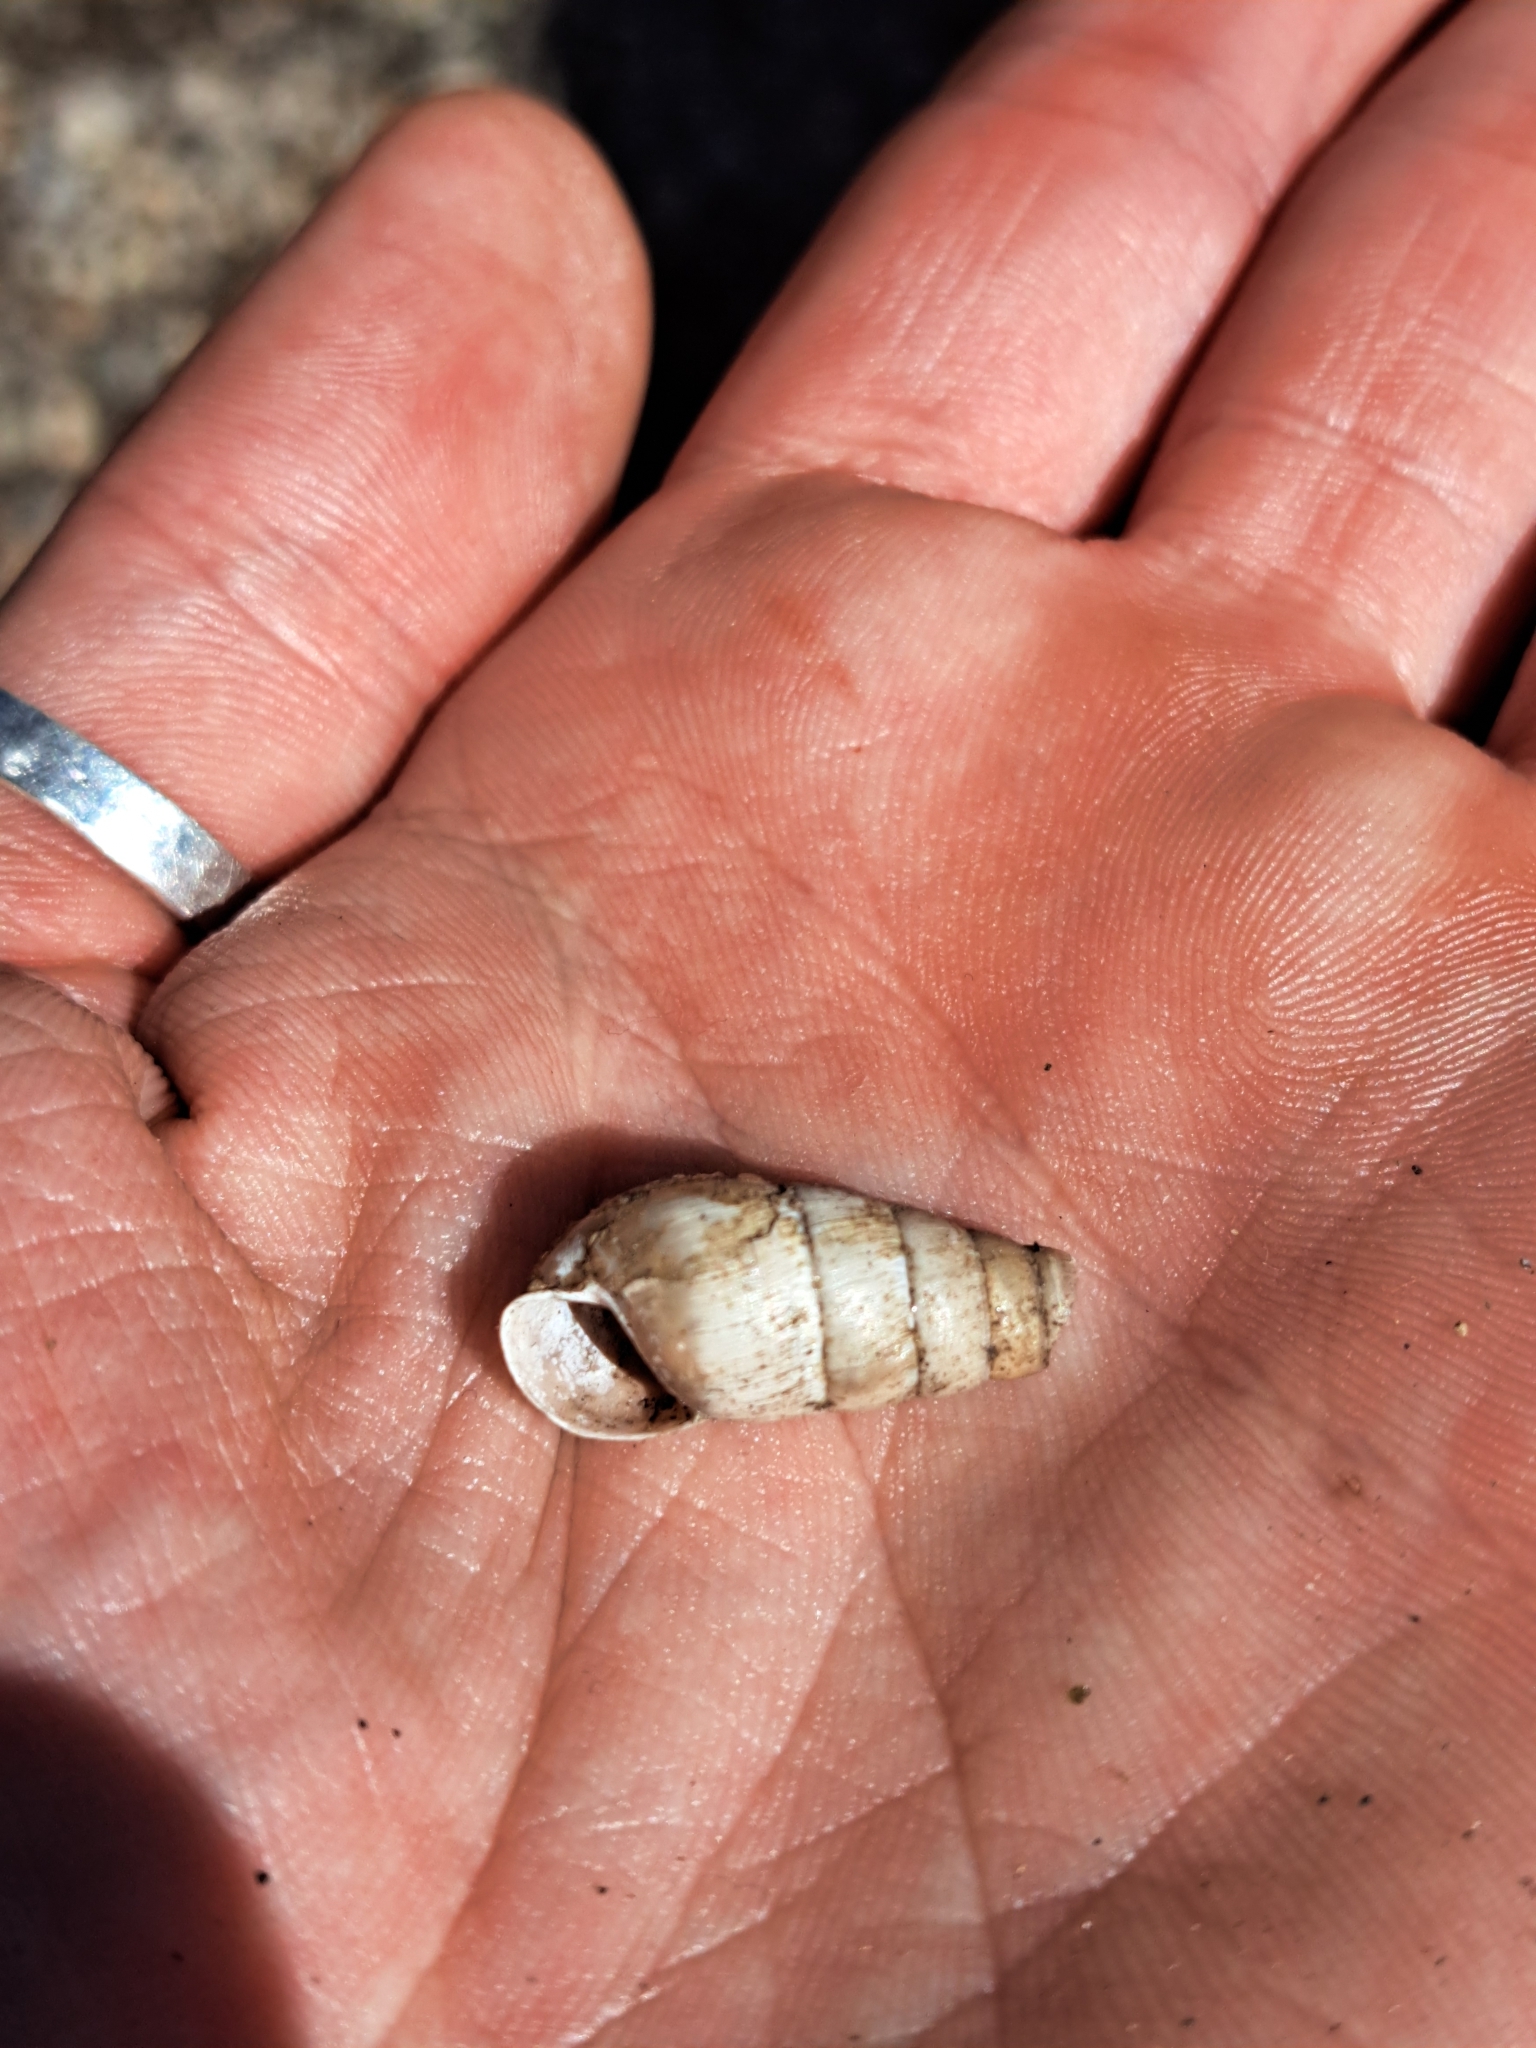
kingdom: Animalia
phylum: Mollusca
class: Gastropoda
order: Stylommatophora
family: Achatinidae
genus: Rumina
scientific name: Rumina decollata
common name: Decollate snail
